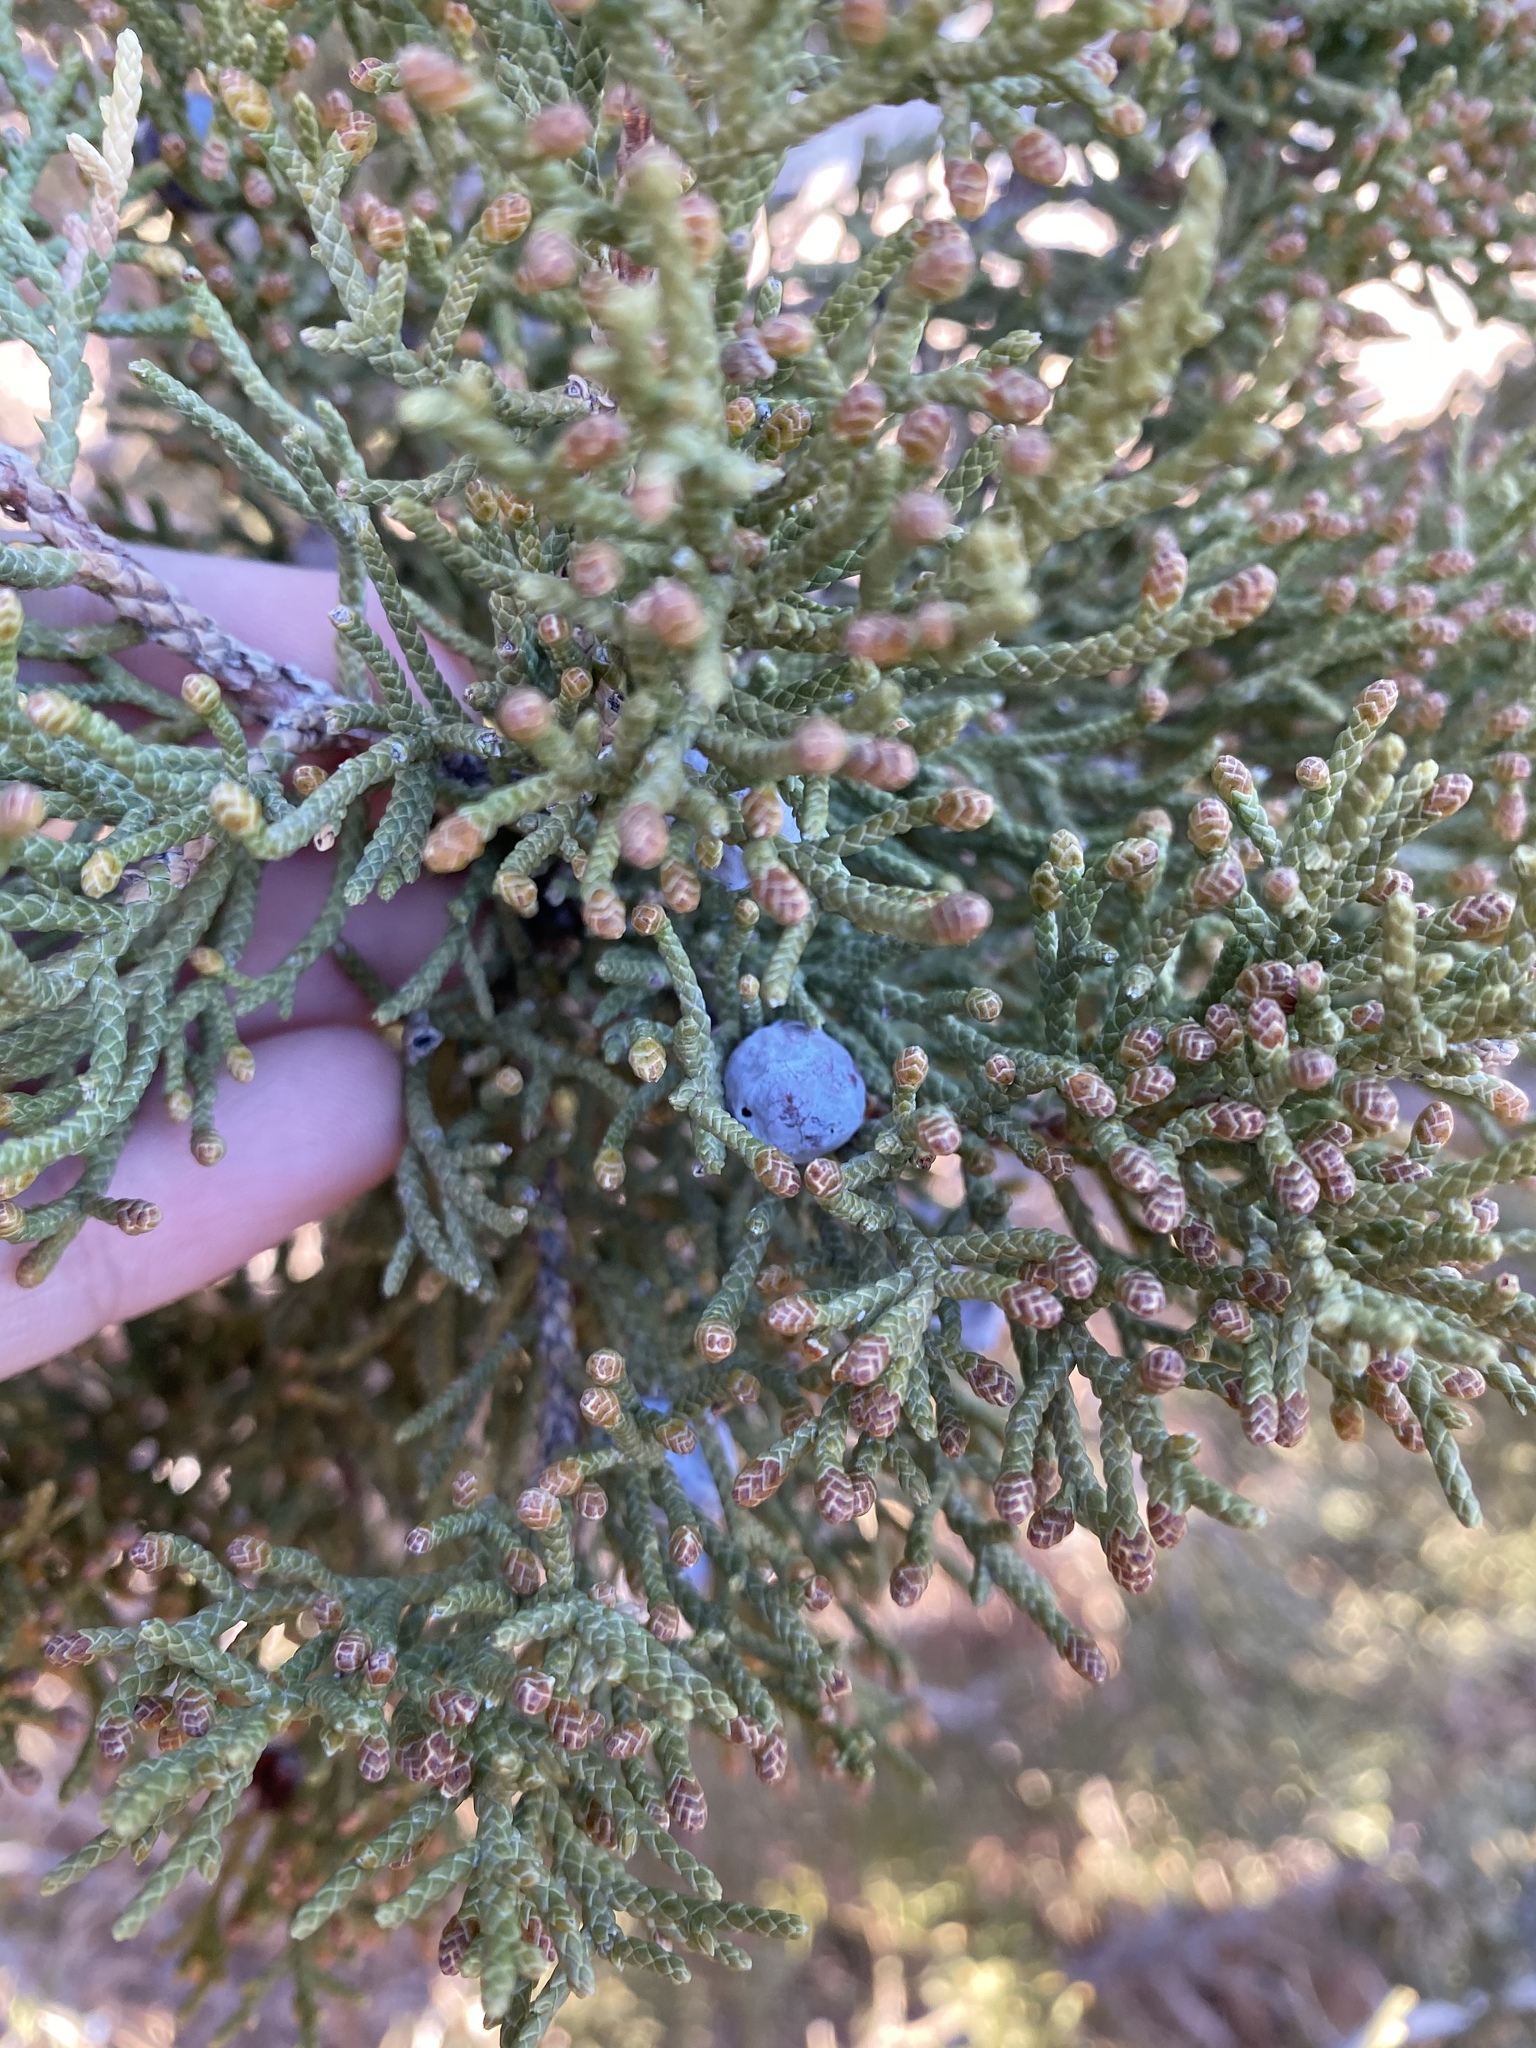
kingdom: Plantae
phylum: Tracheophyta
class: Pinopsida
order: Pinales
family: Cupressaceae
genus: Juniperus
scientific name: Juniperus osteosperma
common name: Utah juniper
